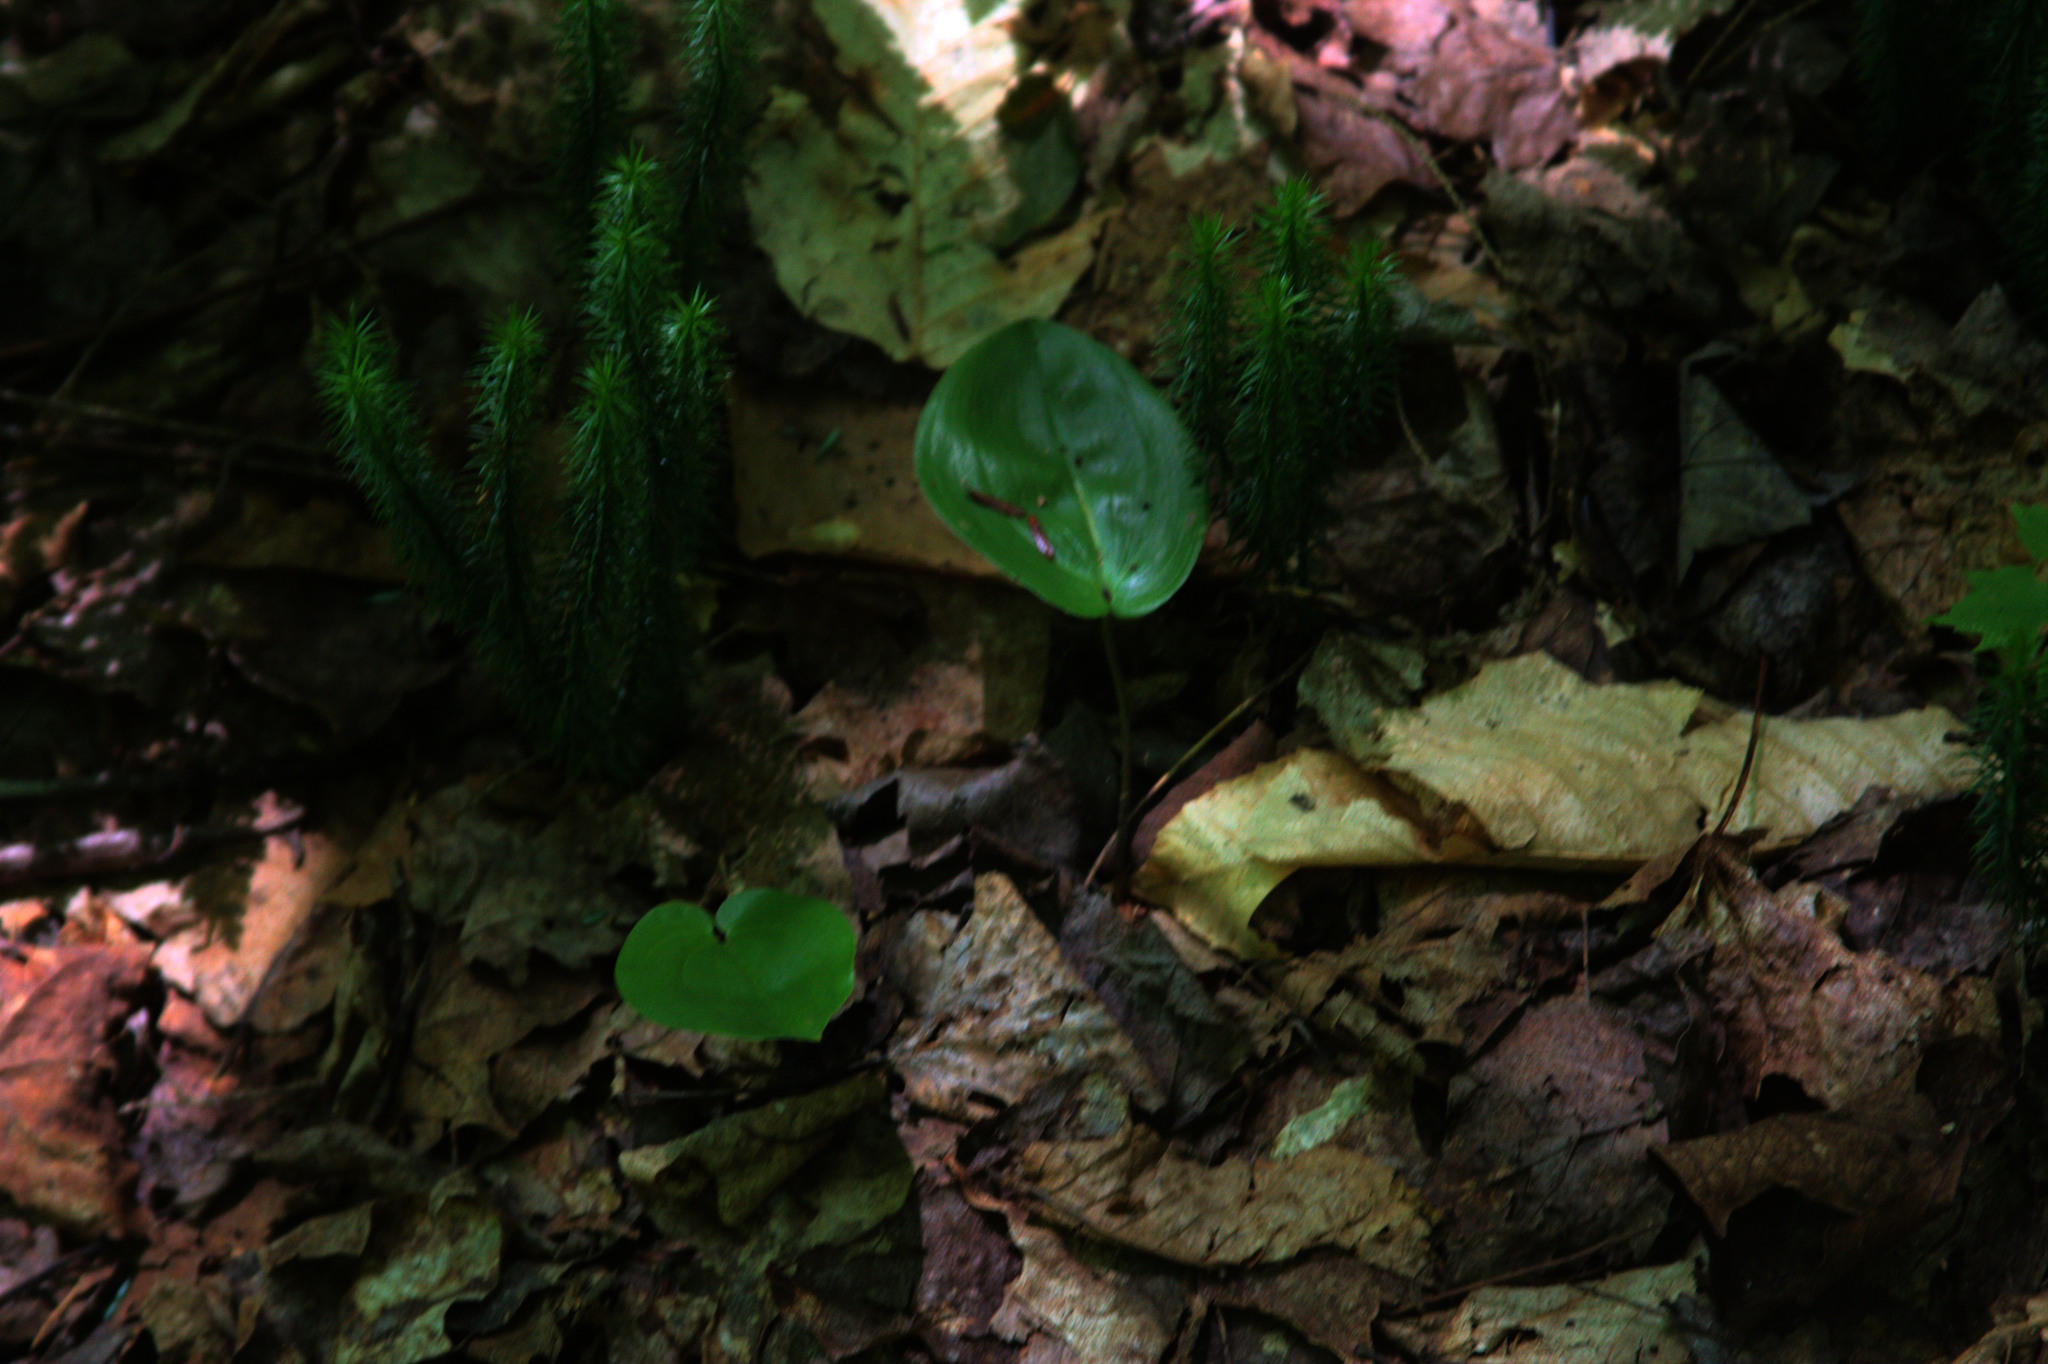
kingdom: Plantae
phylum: Tracheophyta
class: Lycopodiopsida
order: Lycopodiales
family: Lycopodiaceae
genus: Spinulum
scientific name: Spinulum annotinum
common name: Interrupted club-moss
